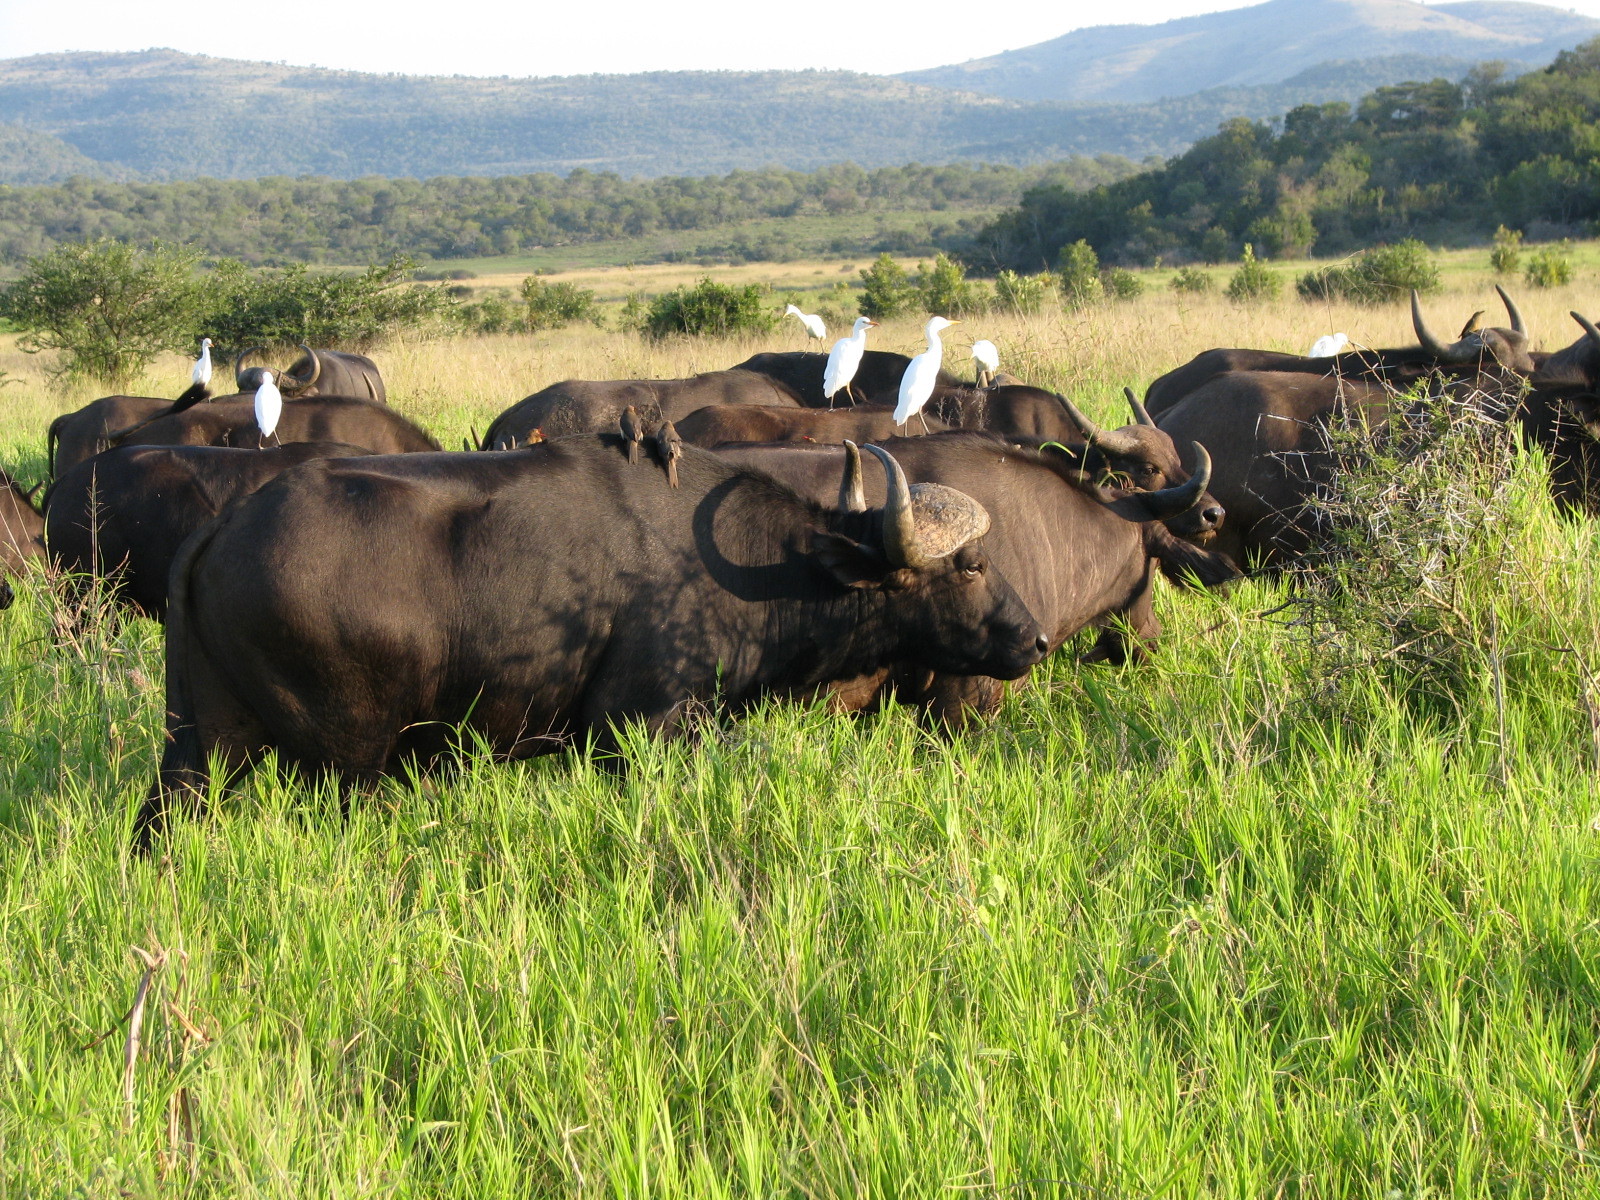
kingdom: Animalia
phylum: Chordata
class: Mammalia
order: Artiodactyla
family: Bovidae
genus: Syncerus
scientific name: Syncerus caffer
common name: African buffalo
